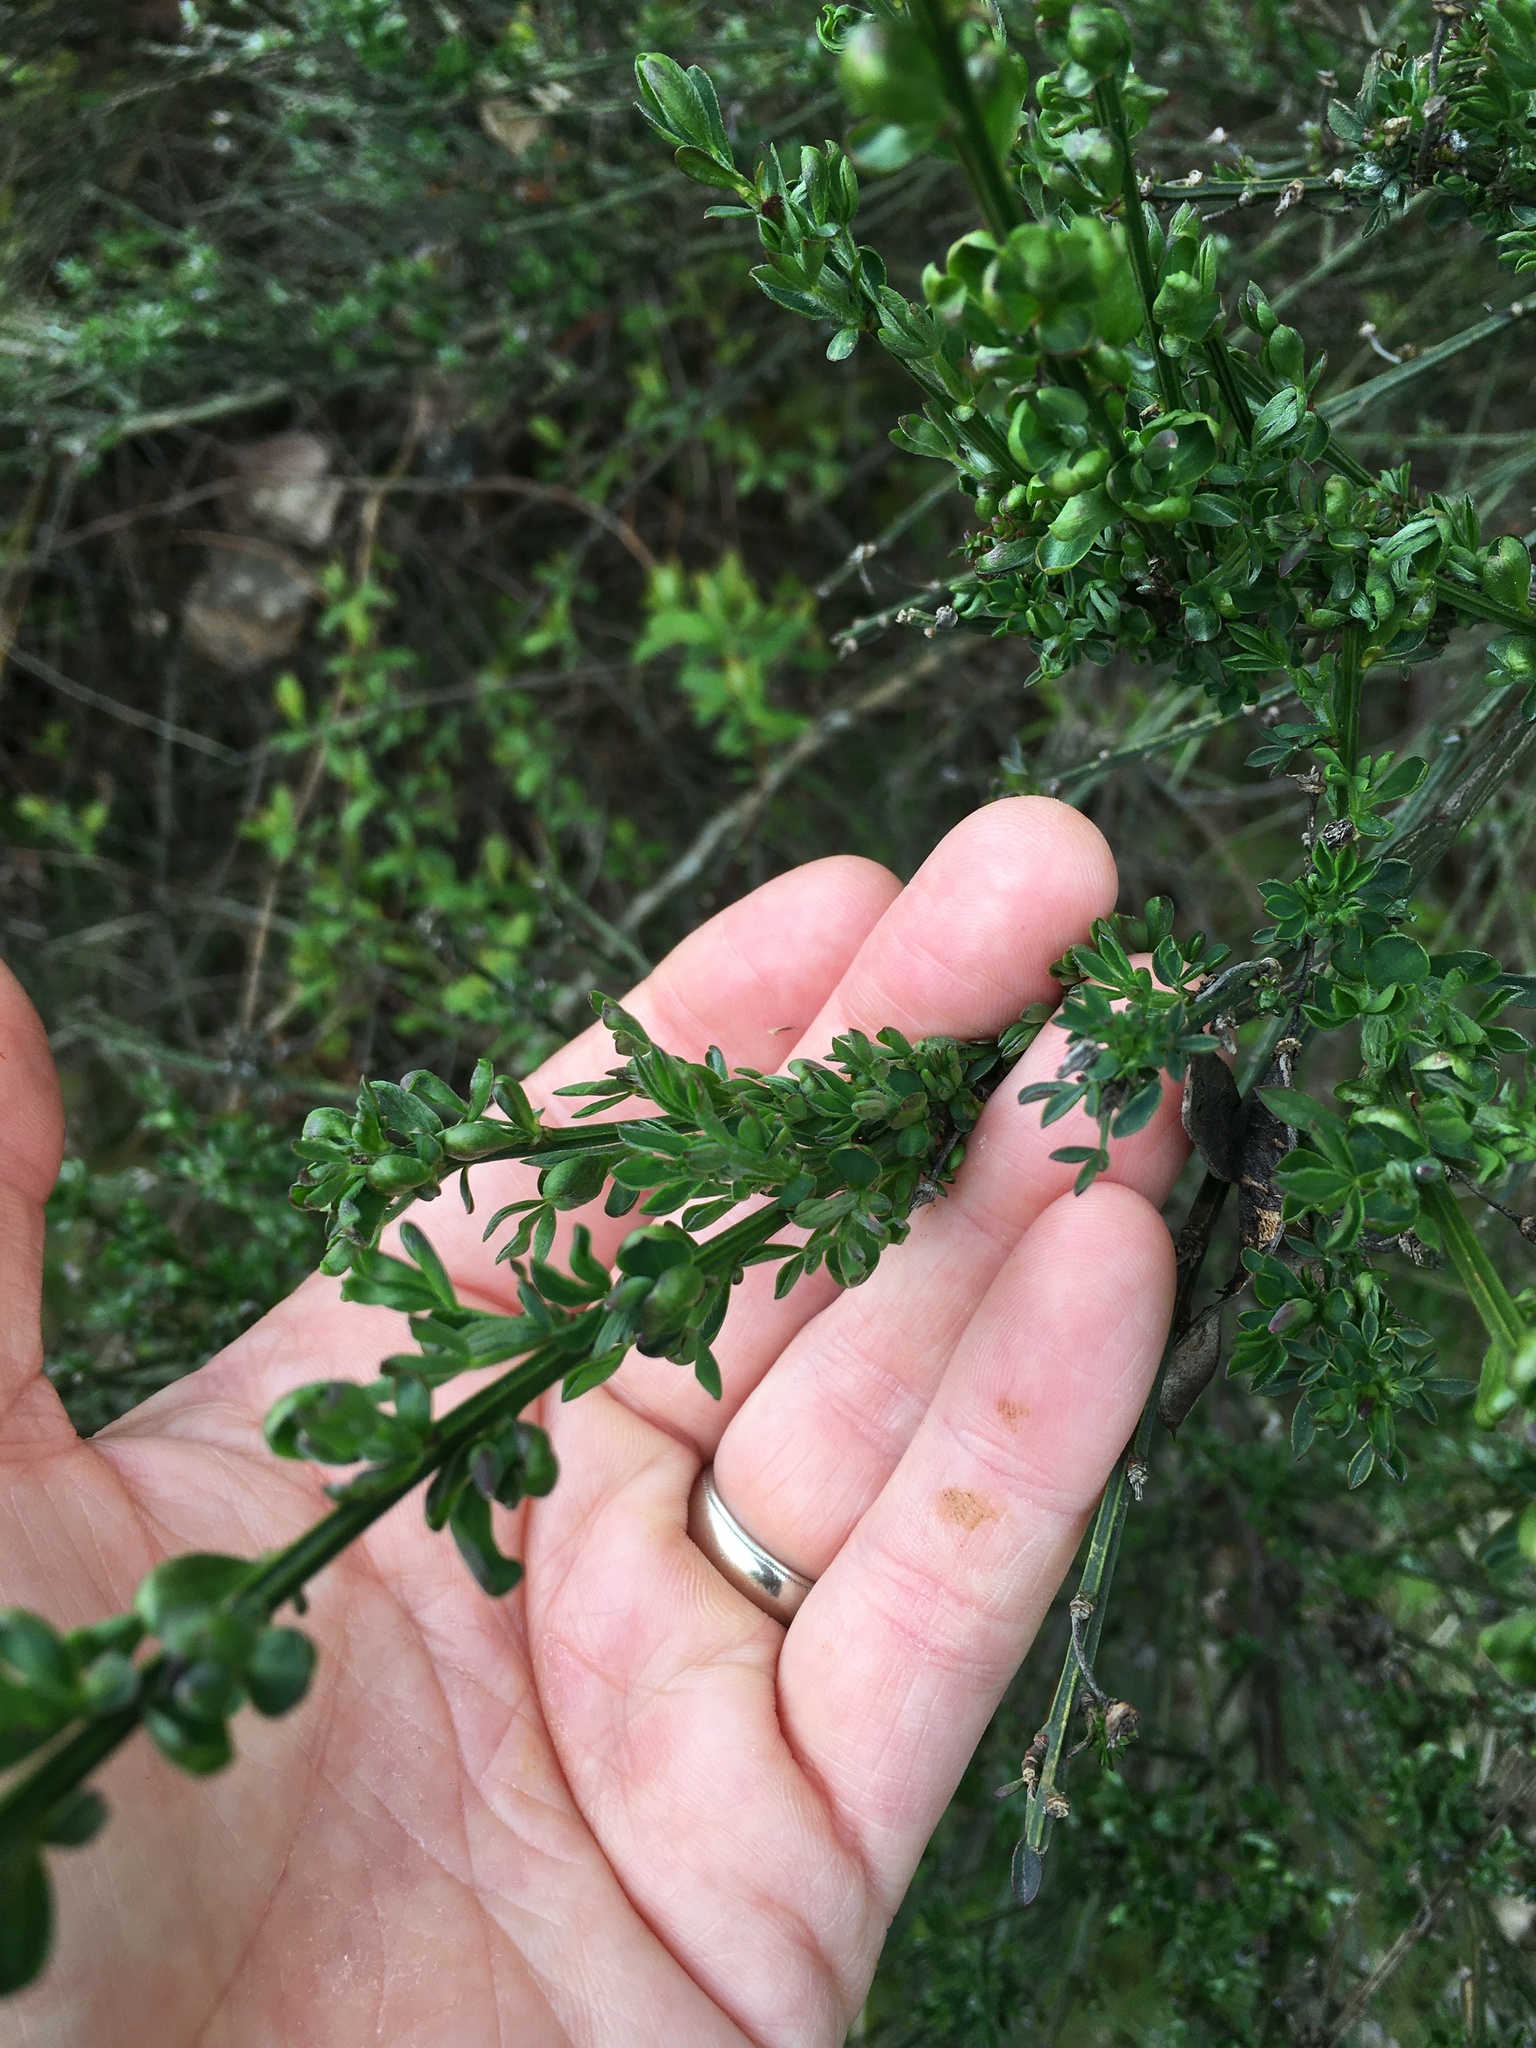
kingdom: Plantae
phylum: Tracheophyta
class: Magnoliopsida
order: Fabales
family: Fabaceae
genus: Cytisus
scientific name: Cytisus scoparius
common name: Scotch broom
